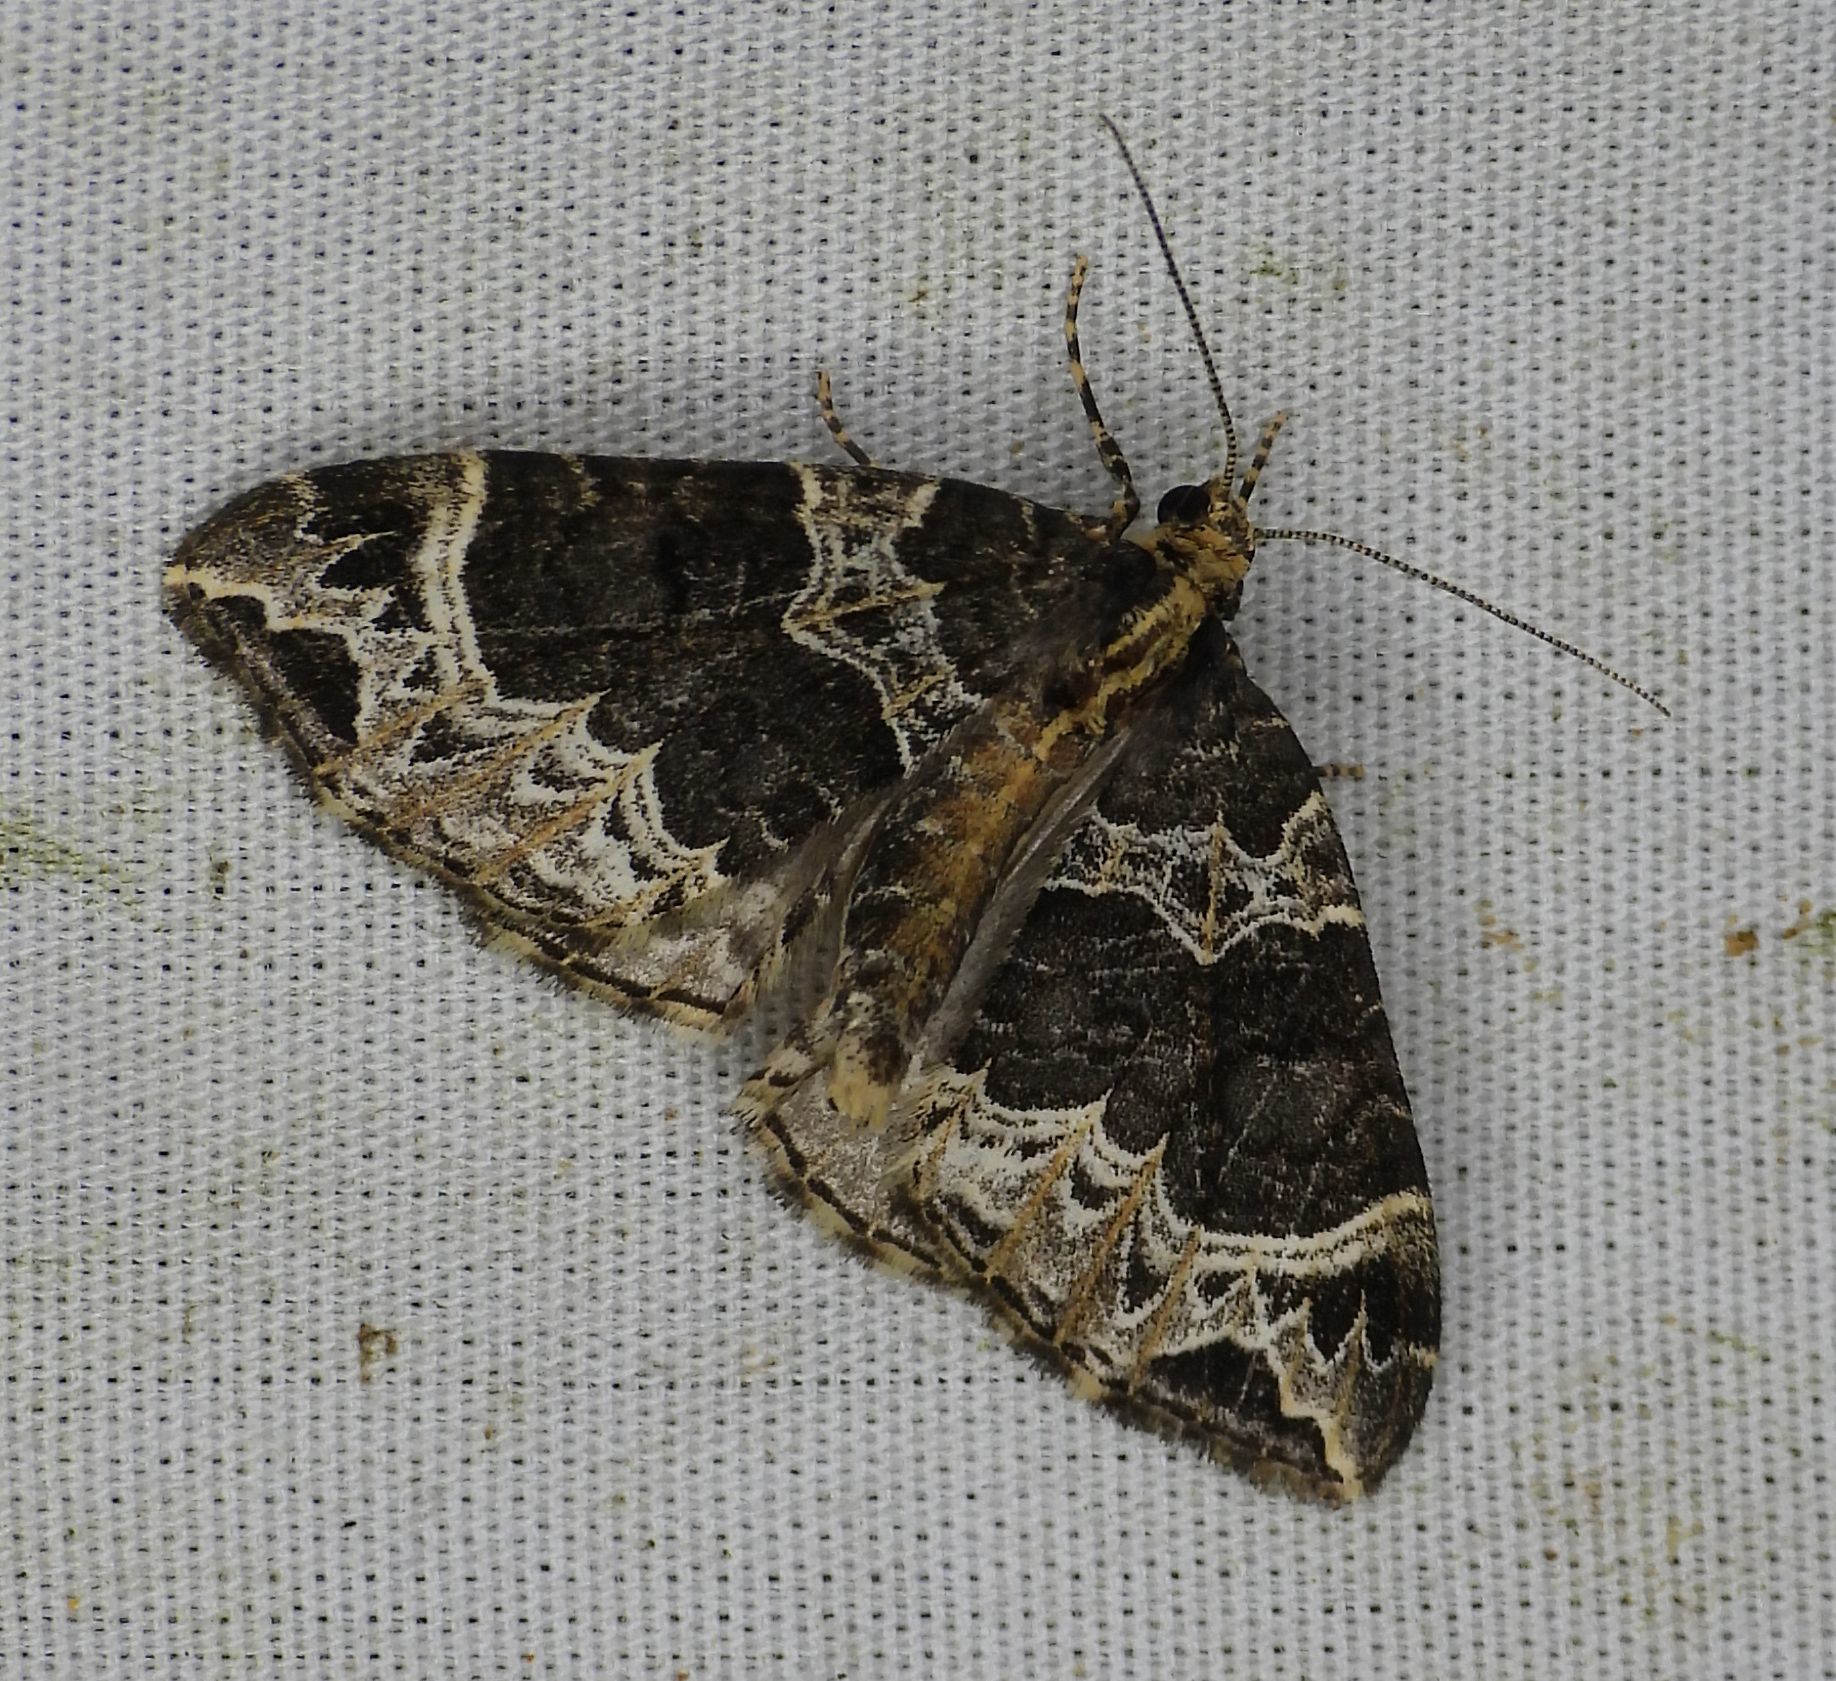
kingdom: Animalia
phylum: Arthropoda
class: Insecta
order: Lepidoptera
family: Geometridae
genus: Ecliptopera
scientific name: Ecliptopera silaceata
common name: Small phoenix
